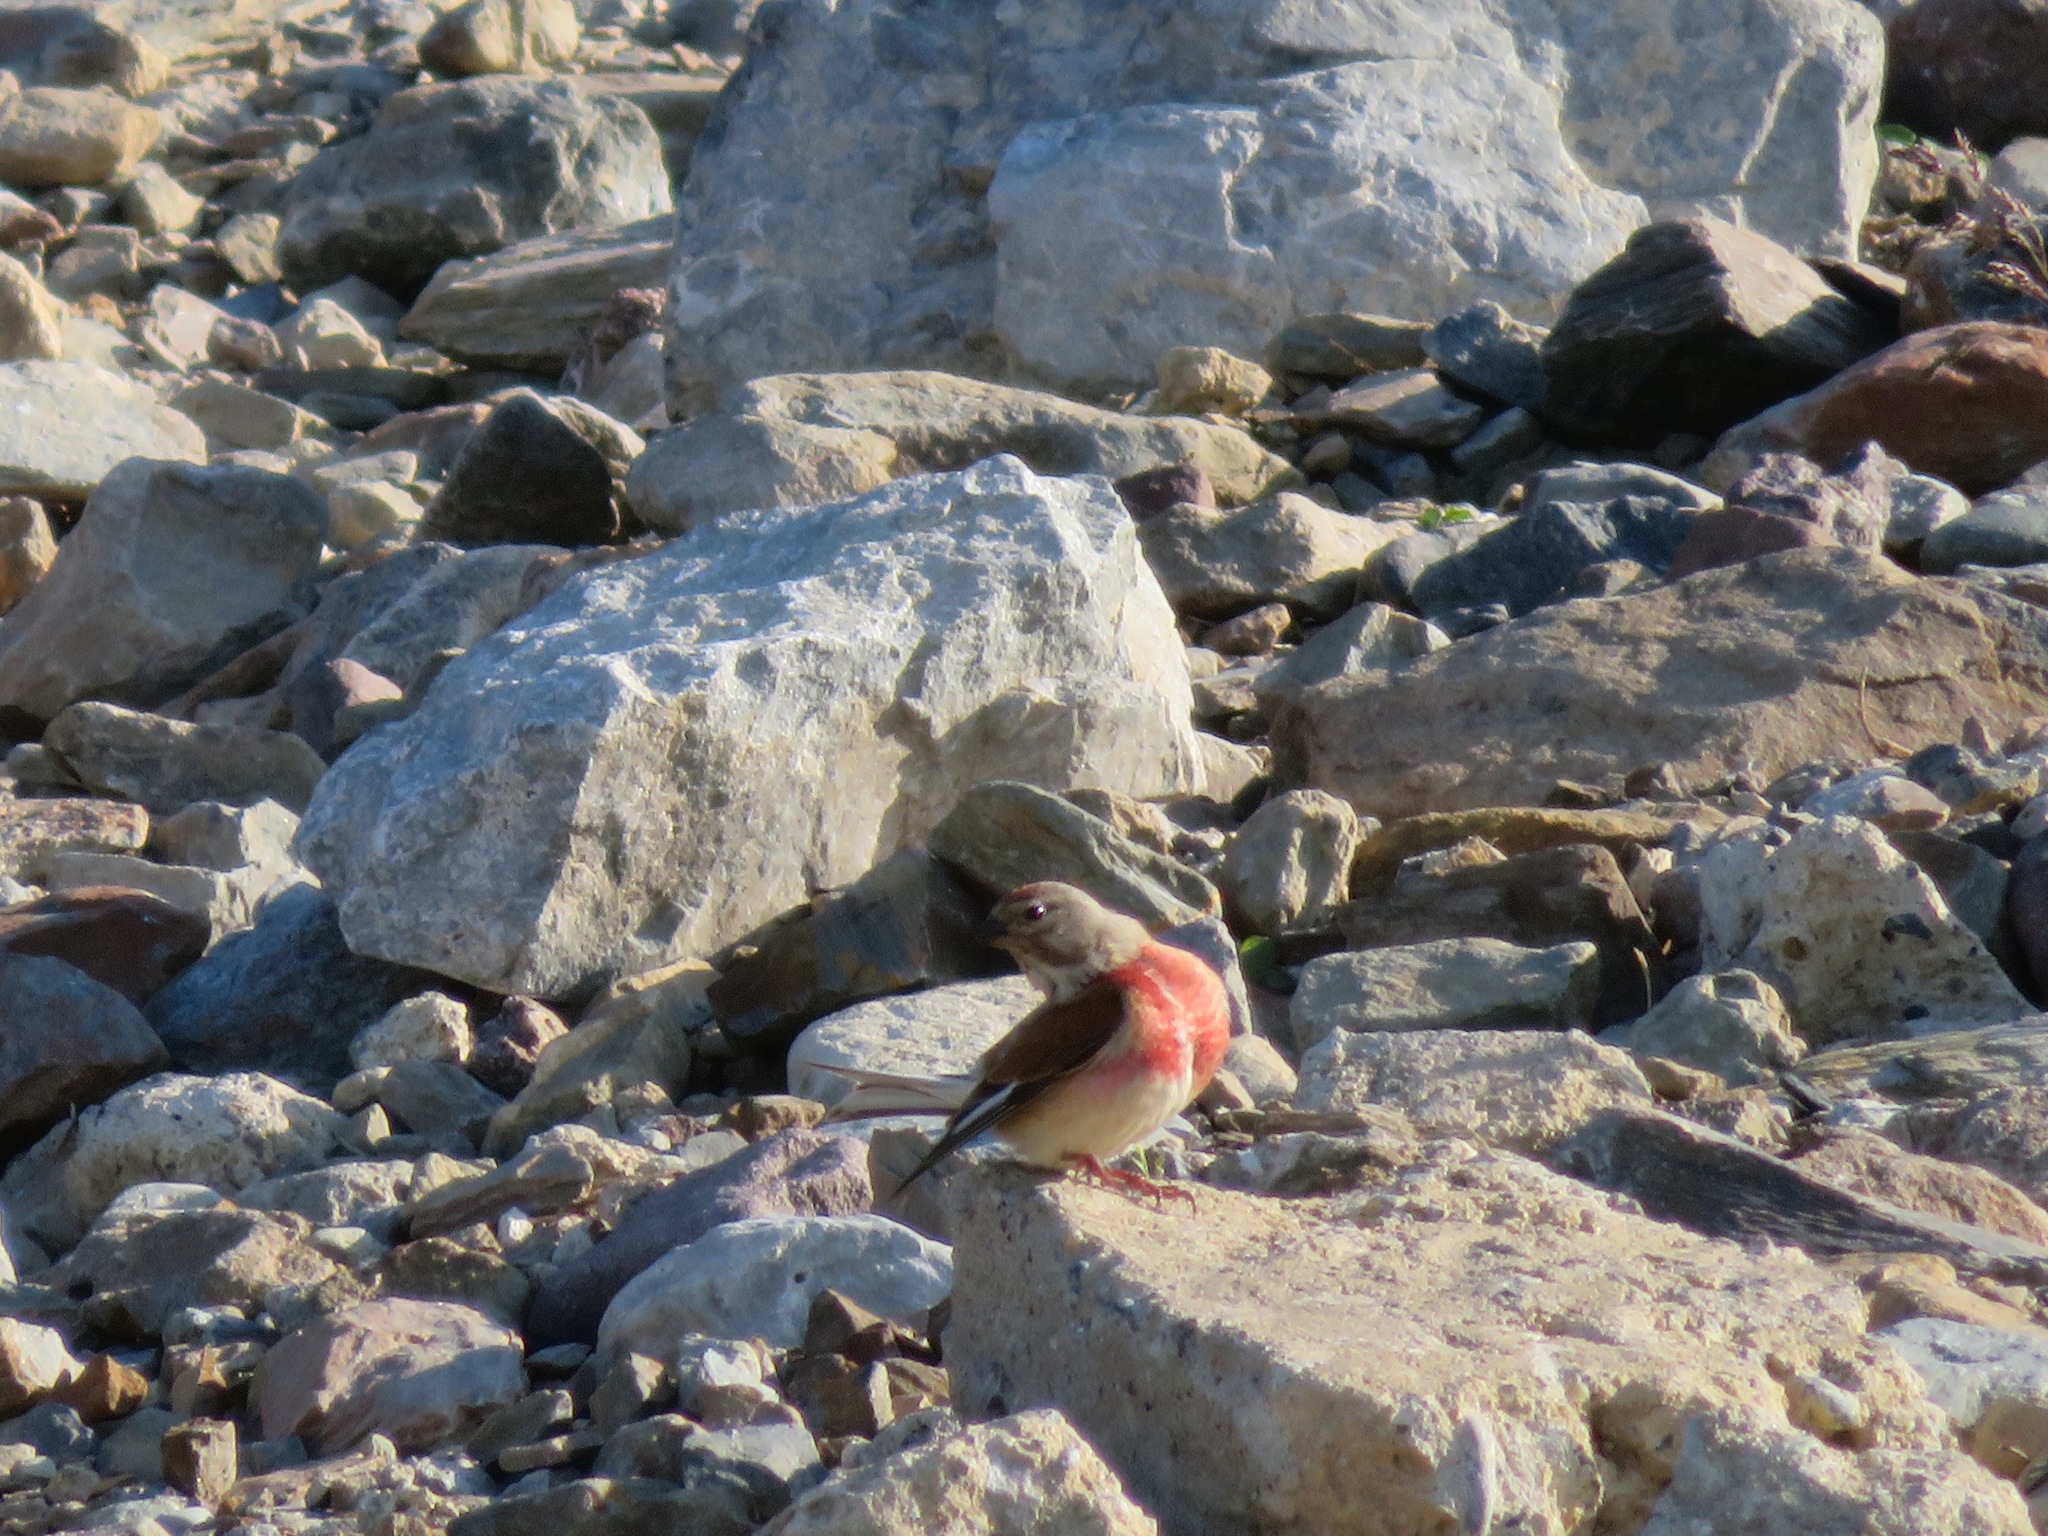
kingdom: Animalia
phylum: Chordata
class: Aves
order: Passeriformes
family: Fringillidae
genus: Linaria
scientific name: Linaria cannabina
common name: Common linnet
